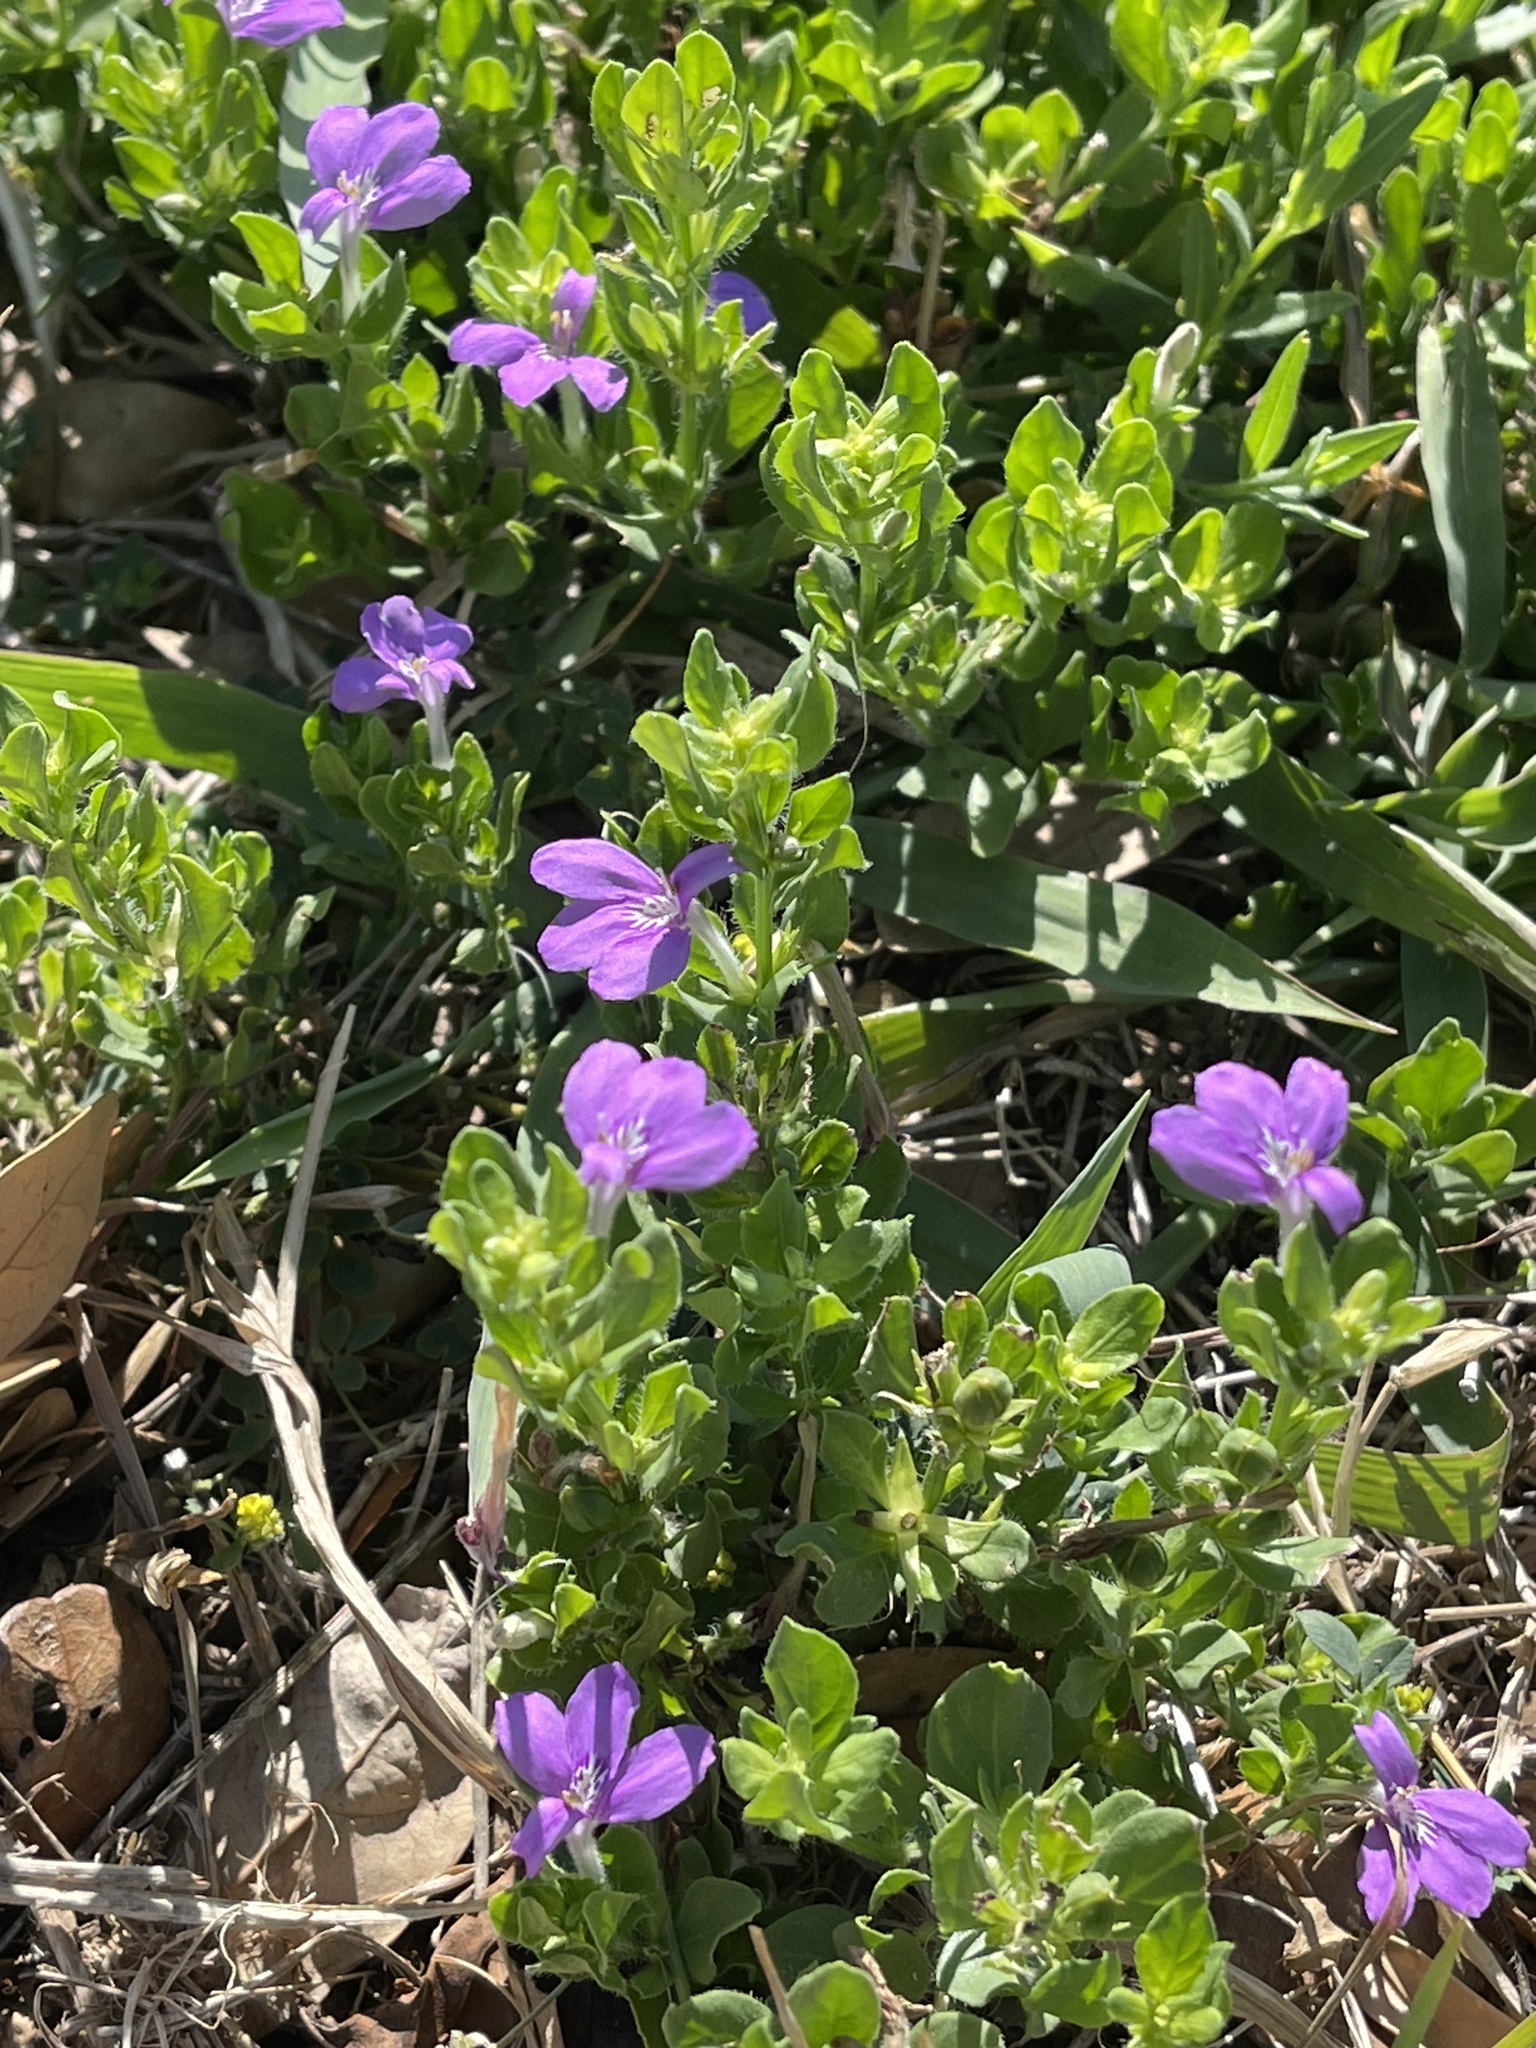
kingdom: Plantae
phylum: Tracheophyta
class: Magnoliopsida
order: Lamiales
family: Acanthaceae
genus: Justicia
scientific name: Justicia pilosella
